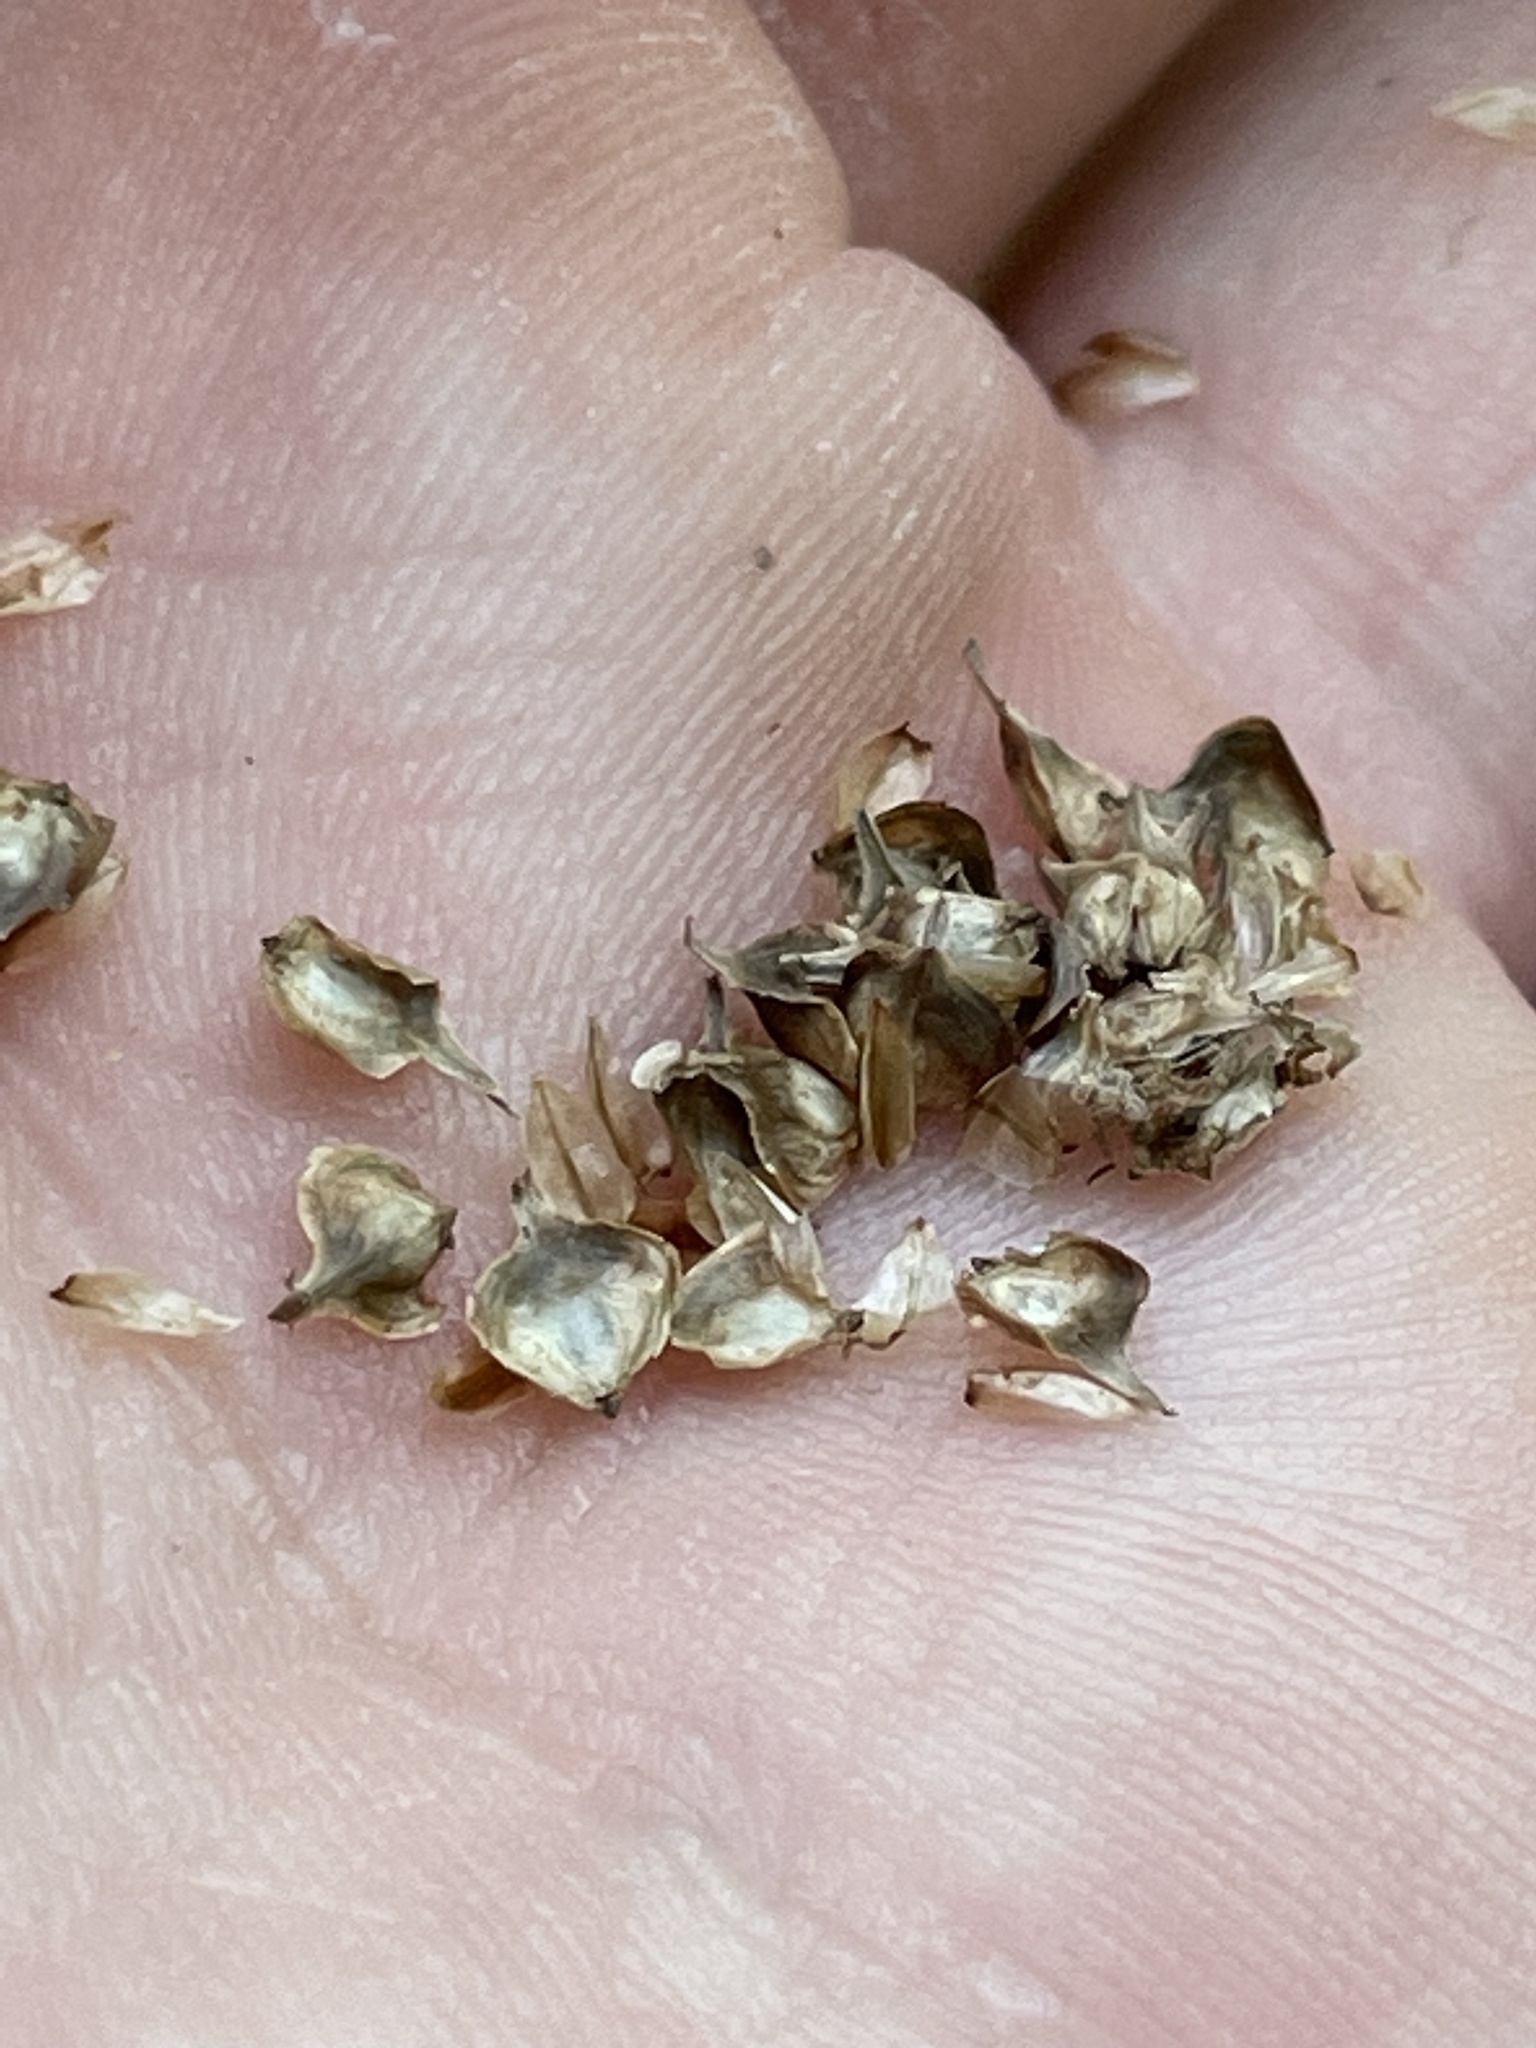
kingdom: Plantae
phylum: Tracheophyta
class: Liliopsida
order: Poales
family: Cyperaceae
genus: Carex
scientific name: Carex reniformis
